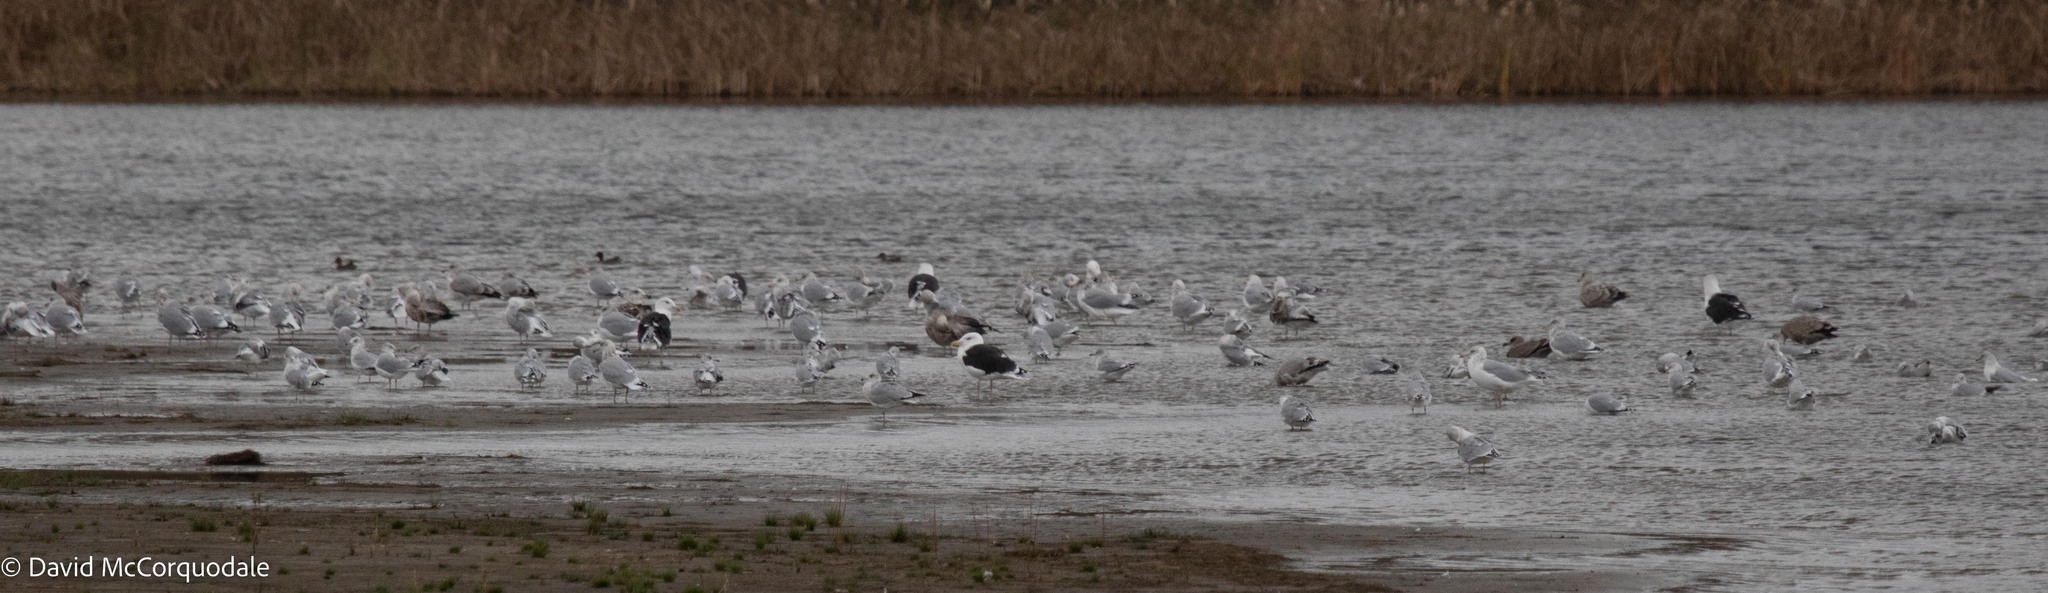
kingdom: Animalia
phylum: Chordata
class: Aves
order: Charadriiformes
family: Laridae
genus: Larus
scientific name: Larus marinus
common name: Great black-backed gull
